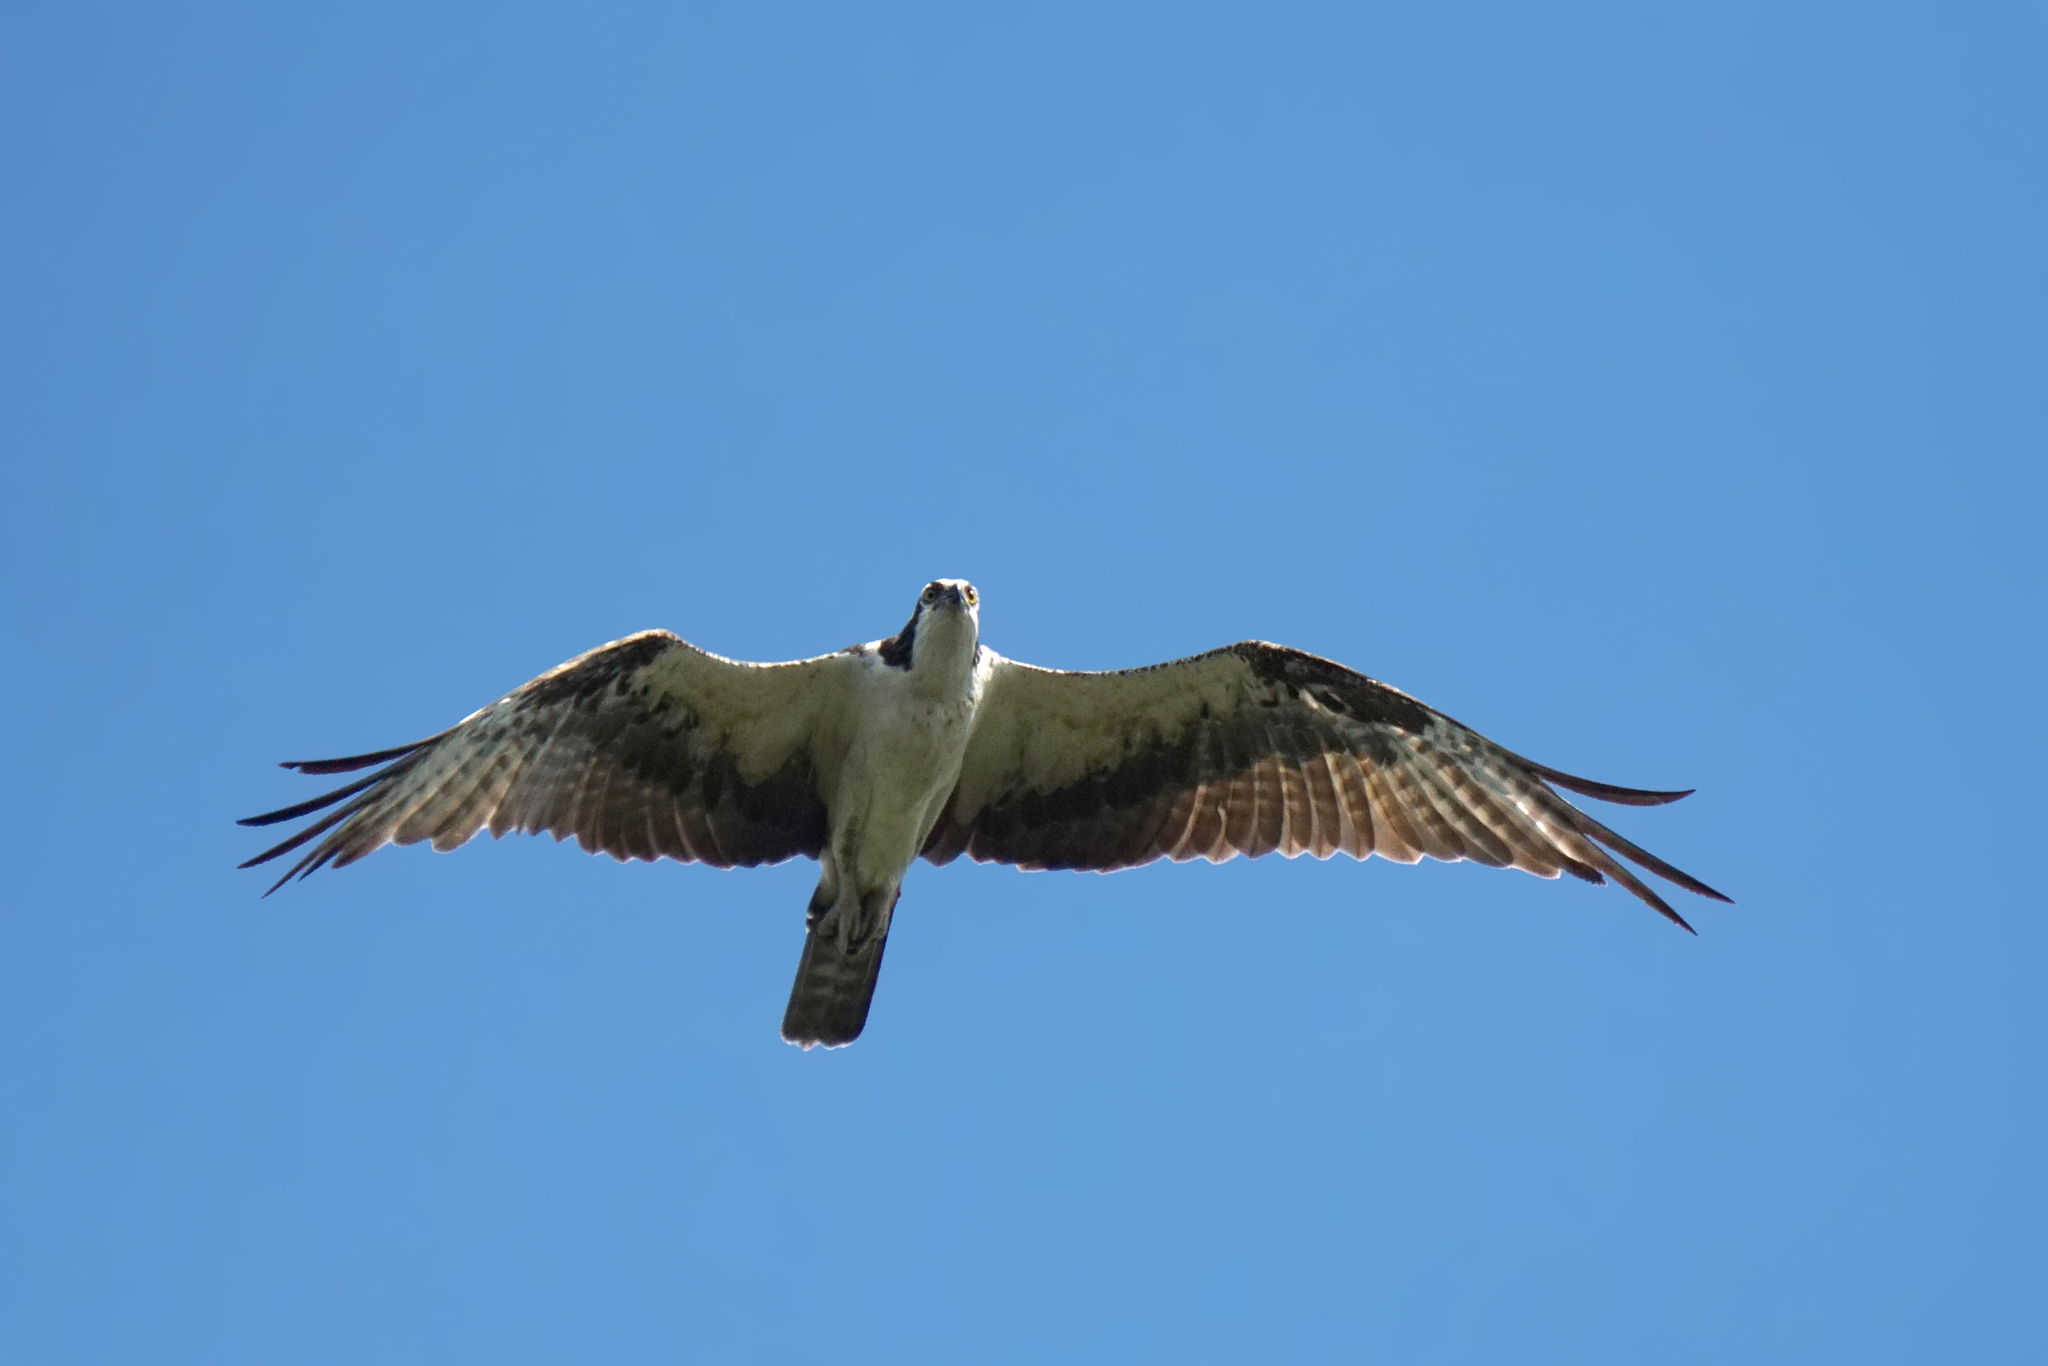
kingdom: Animalia
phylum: Chordata
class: Aves
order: Accipitriformes
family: Pandionidae
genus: Pandion
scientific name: Pandion haliaetus
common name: Osprey
